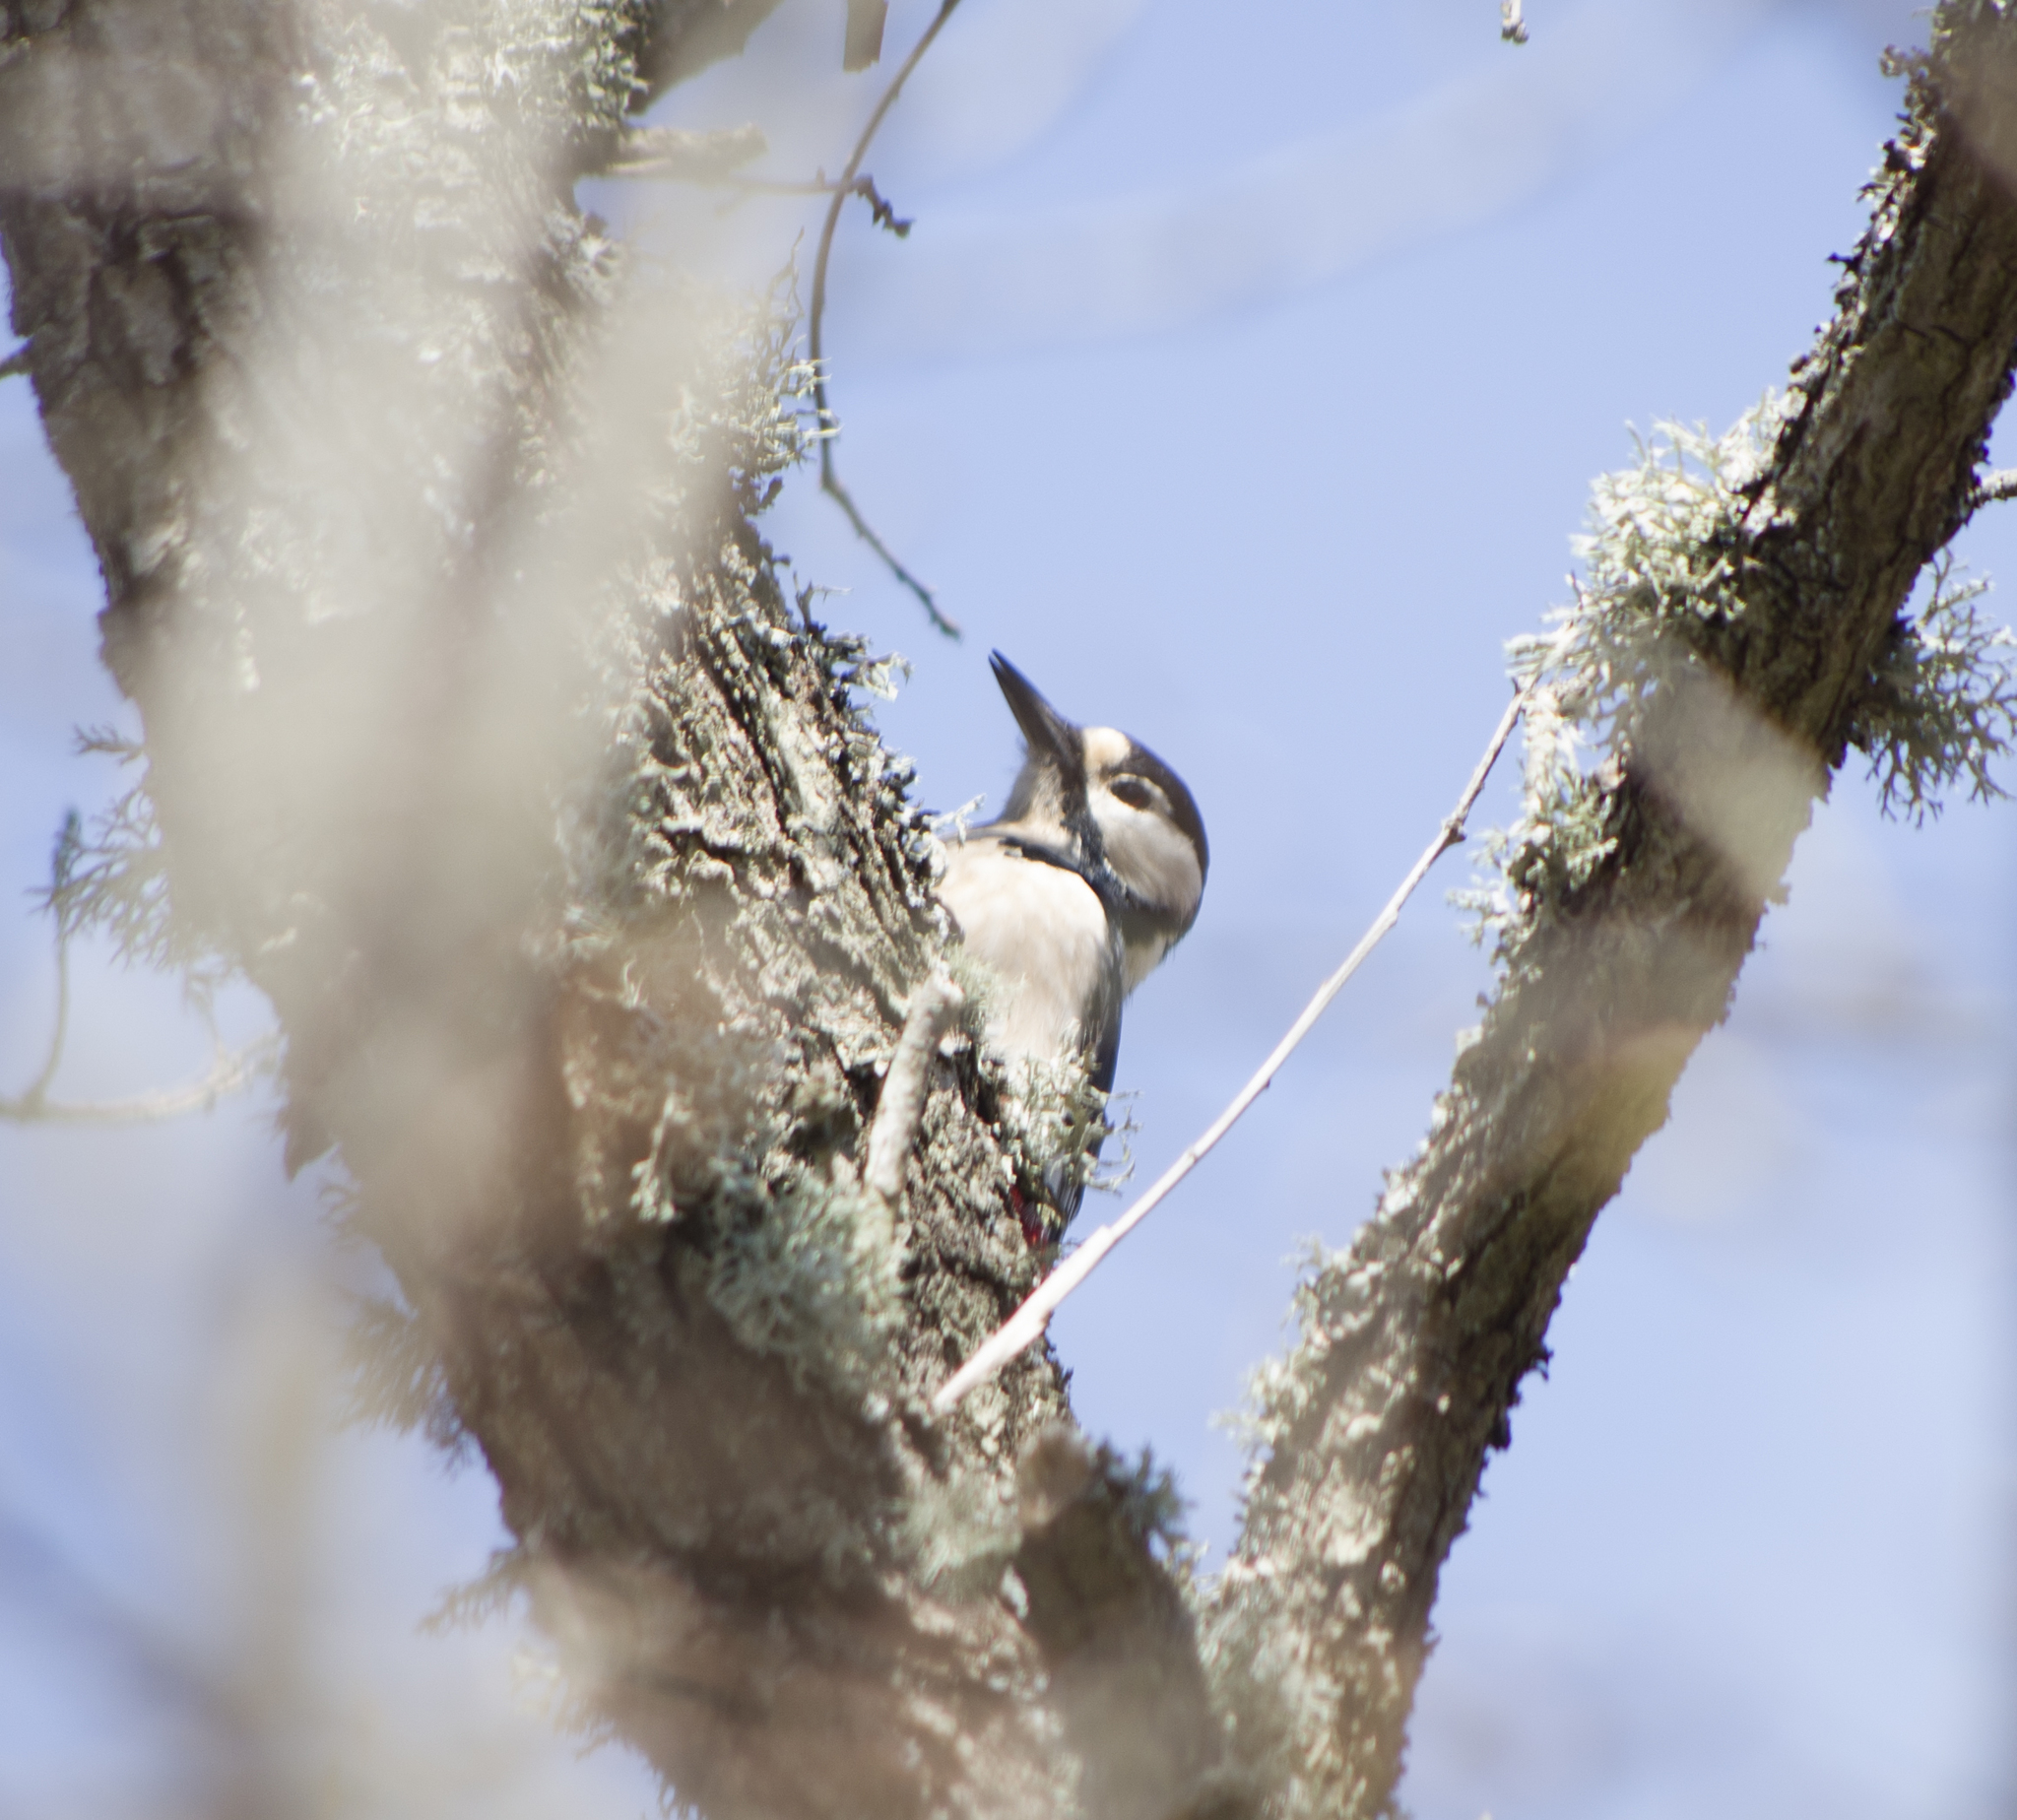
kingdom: Animalia
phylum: Chordata
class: Aves
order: Piciformes
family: Picidae
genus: Dendrocopos
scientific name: Dendrocopos major
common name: Great spotted woodpecker
